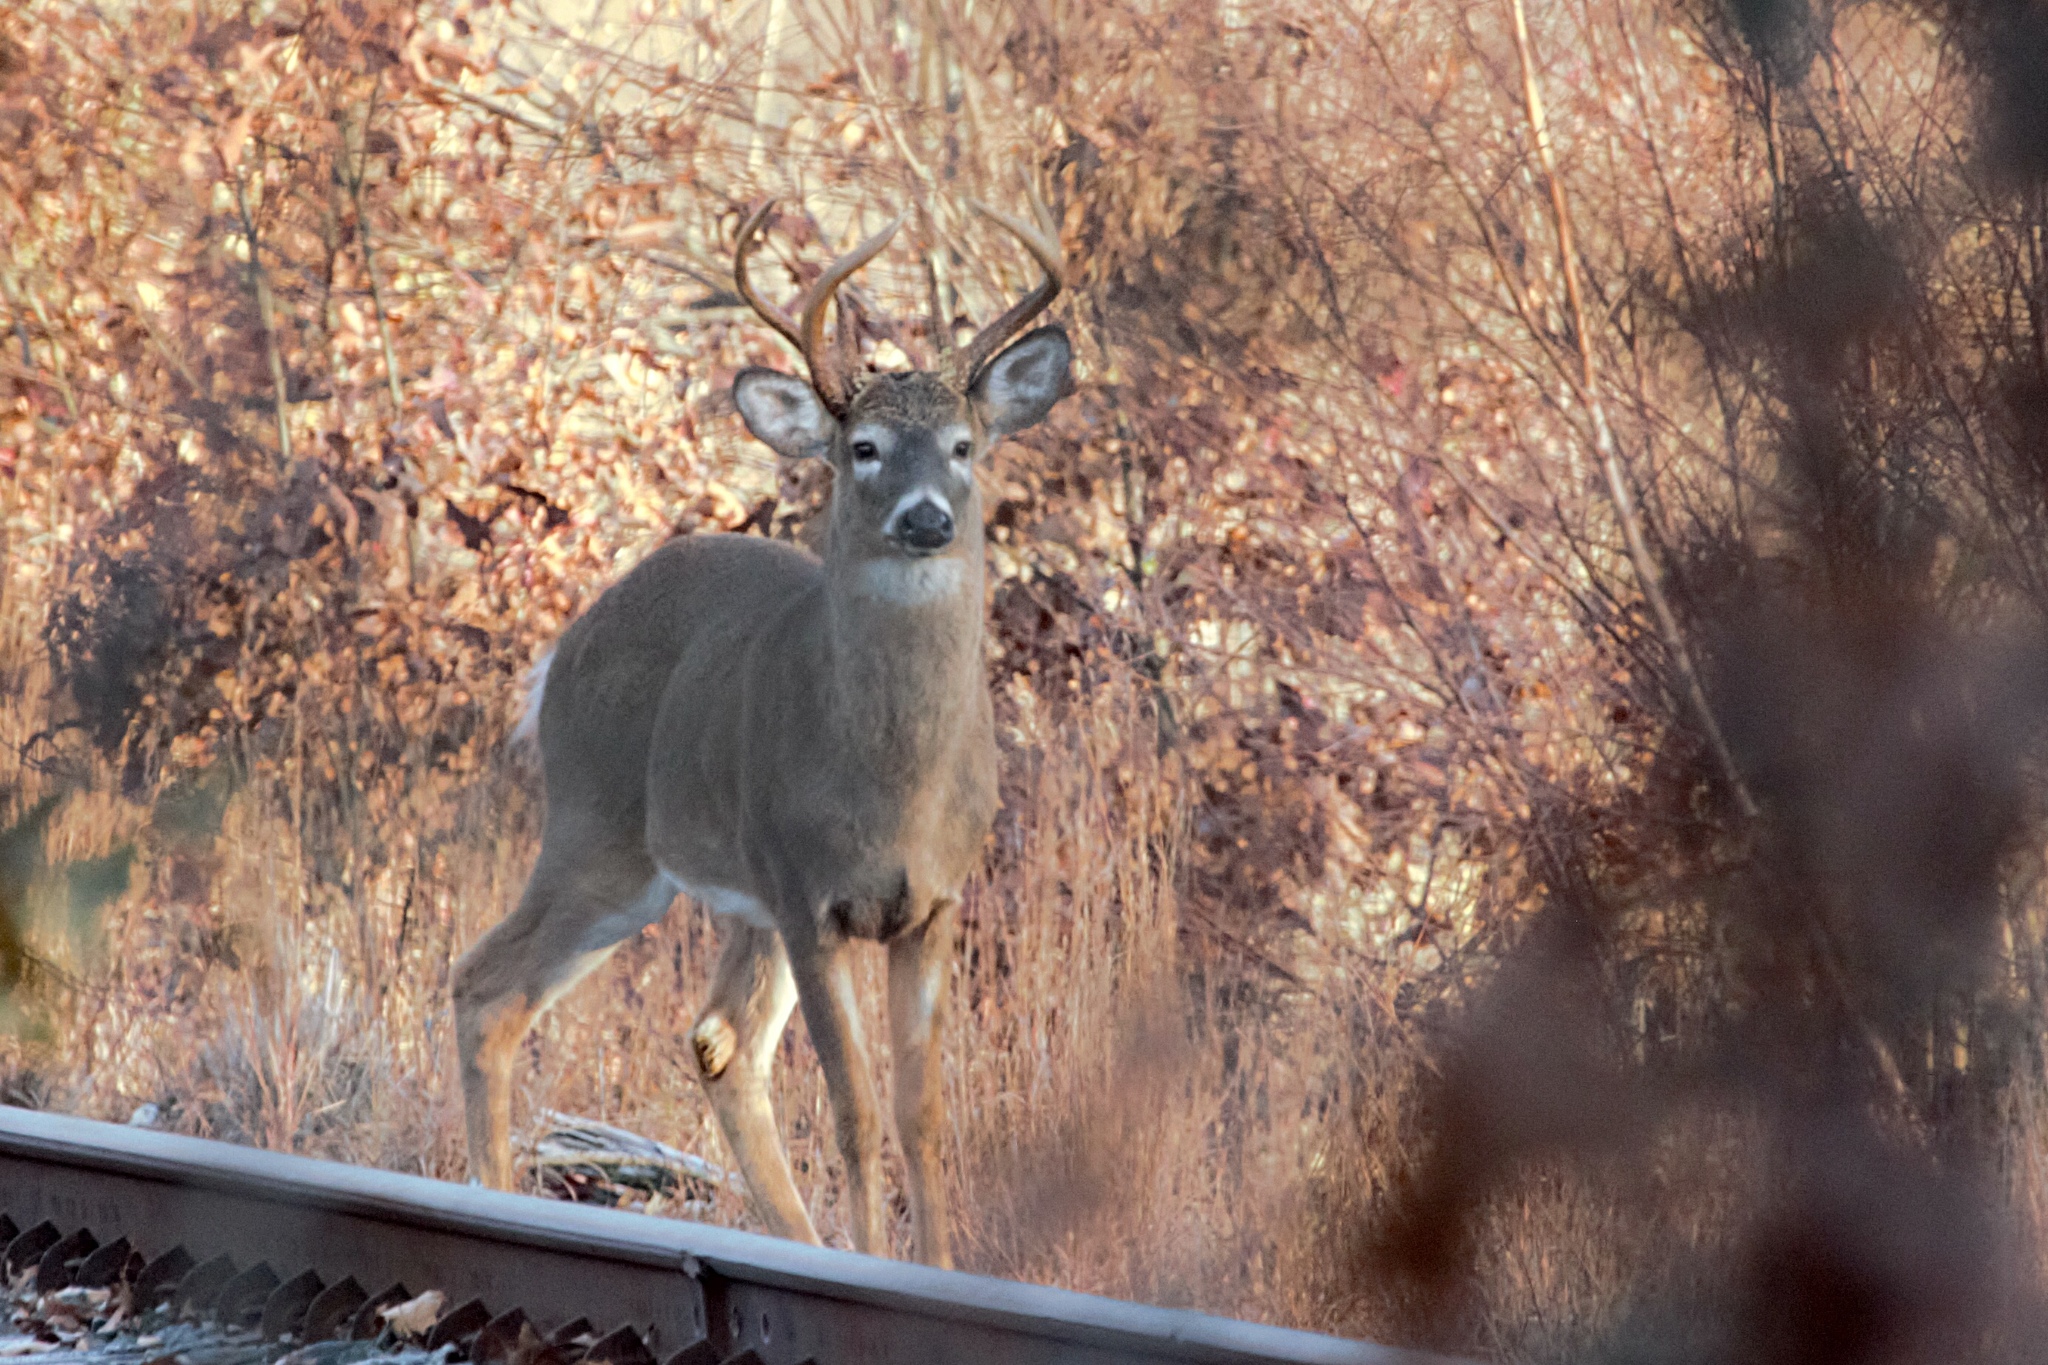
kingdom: Animalia
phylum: Chordata
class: Mammalia
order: Artiodactyla
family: Cervidae
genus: Odocoileus
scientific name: Odocoileus virginianus
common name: White-tailed deer
